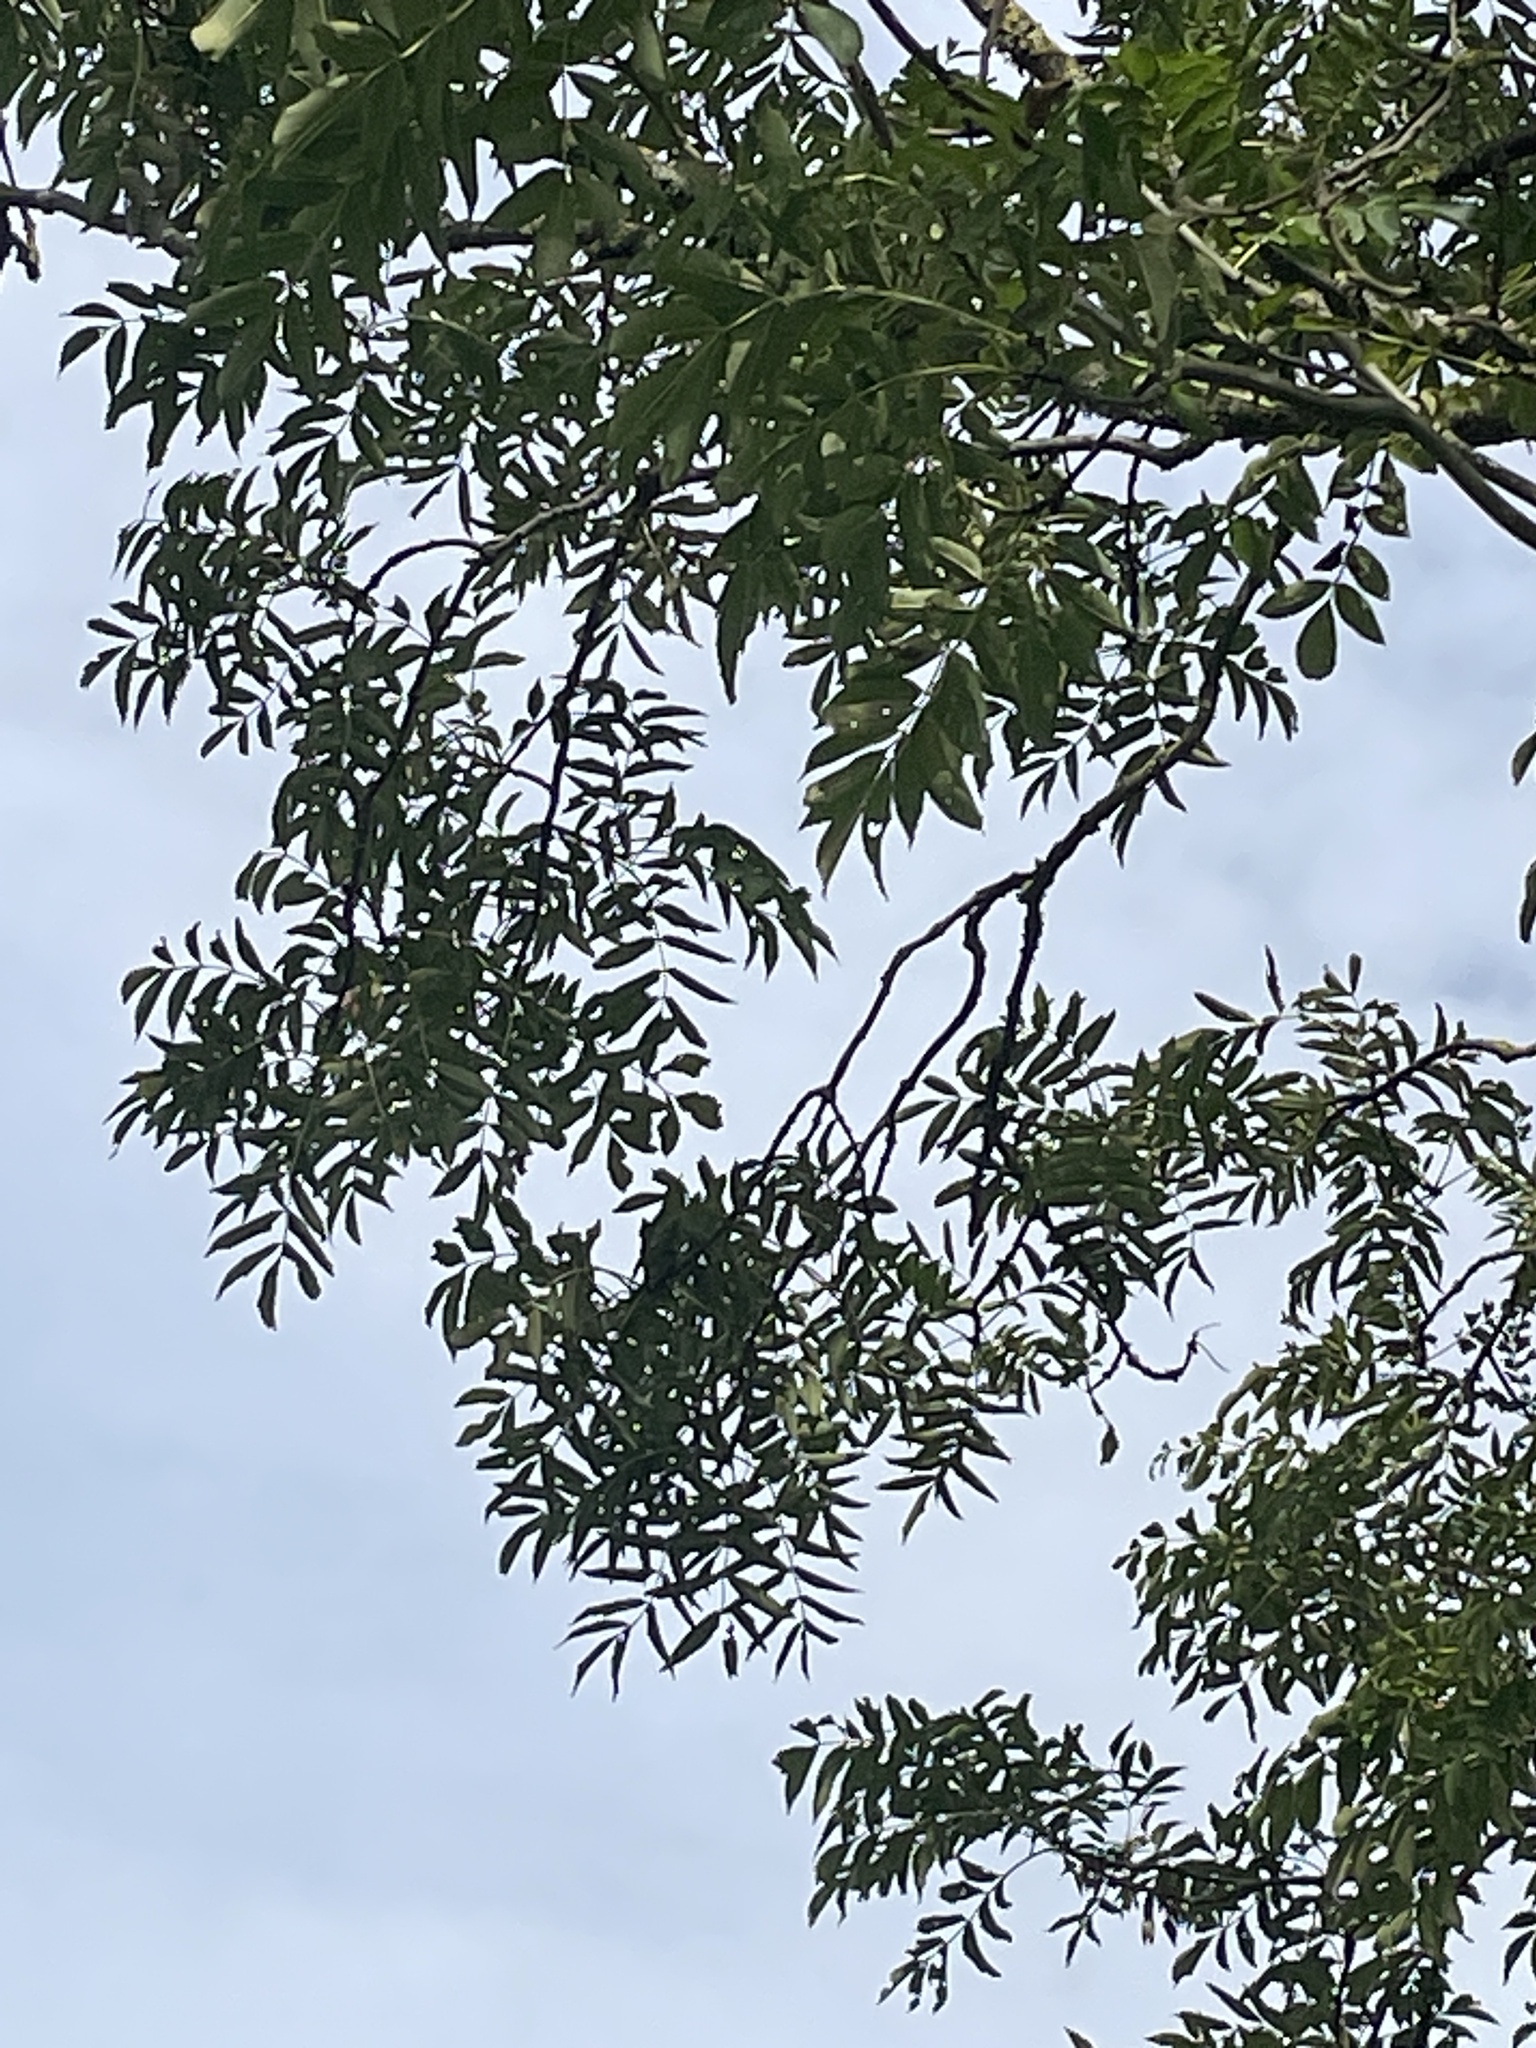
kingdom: Plantae
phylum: Tracheophyta
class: Magnoliopsida
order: Lamiales
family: Oleaceae
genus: Fraxinus
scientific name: Fraxinus excelsior
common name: European ash
